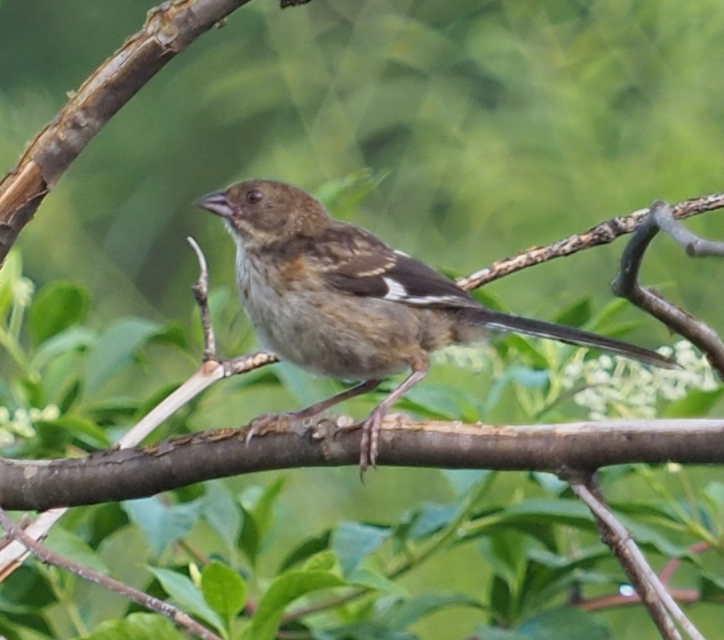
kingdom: Animalia
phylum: Chordata
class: Aves
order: Passeriformes
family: Passerellidae
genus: Pipilo
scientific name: Pipilo erythrophthalmus
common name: Eastern towhee
